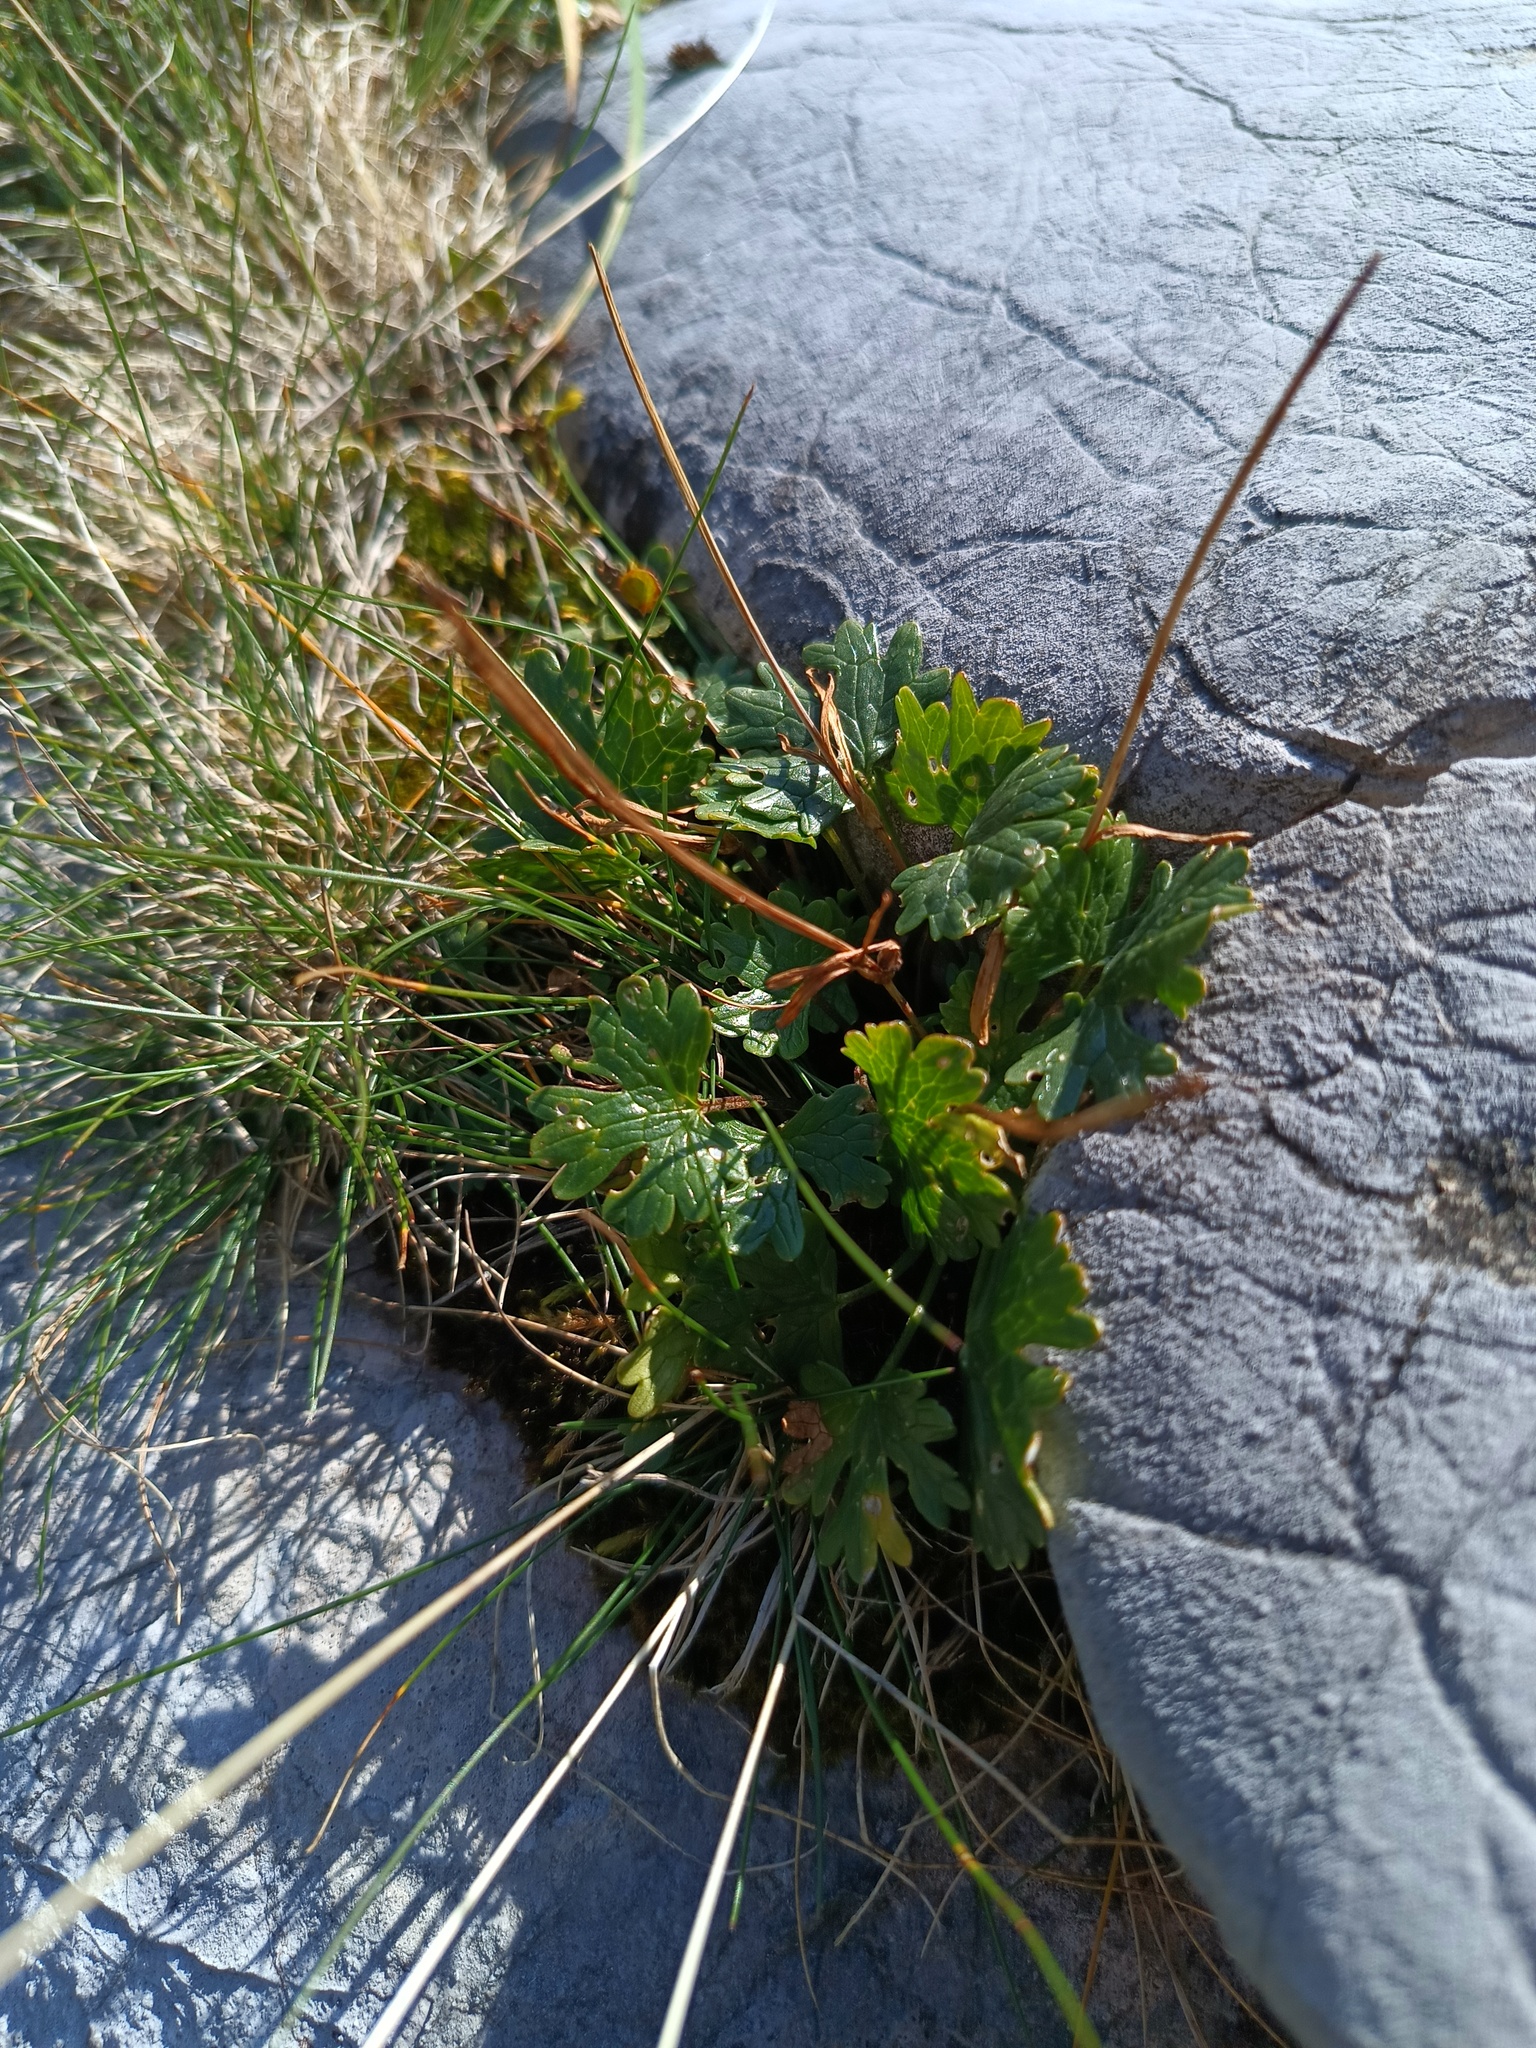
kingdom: Plantae
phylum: Tracheophyta
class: Magnoliopsida
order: Ranunculales
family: Ranunculaceae
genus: Ranunculus
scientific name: Ranunculus alpestris
